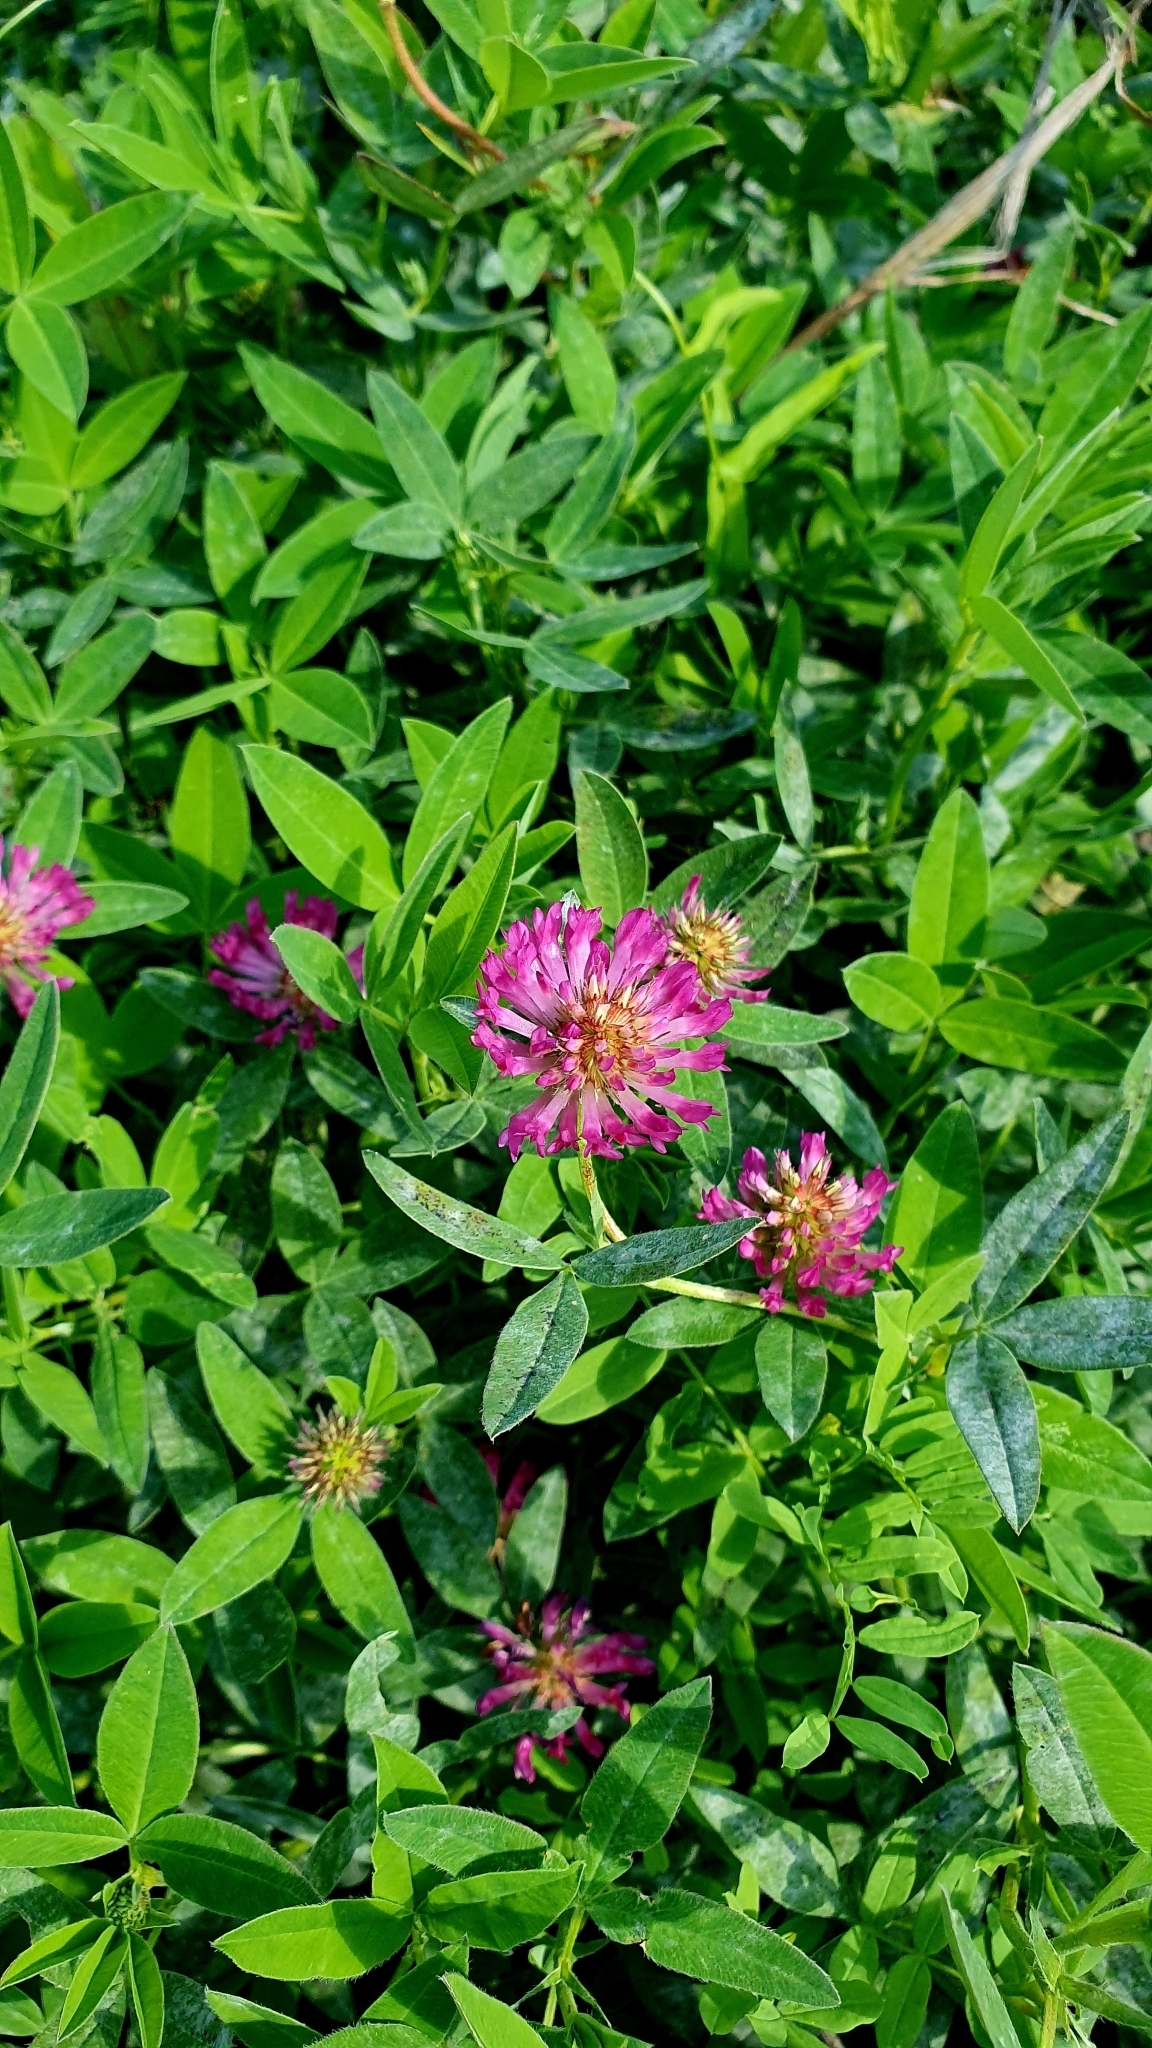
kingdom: Plantae
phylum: Tracheophyta
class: Magnoliopsida
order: Fabales
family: Fabaceae
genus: Trifolium
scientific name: Trifolium medium
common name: Zigzag clover
